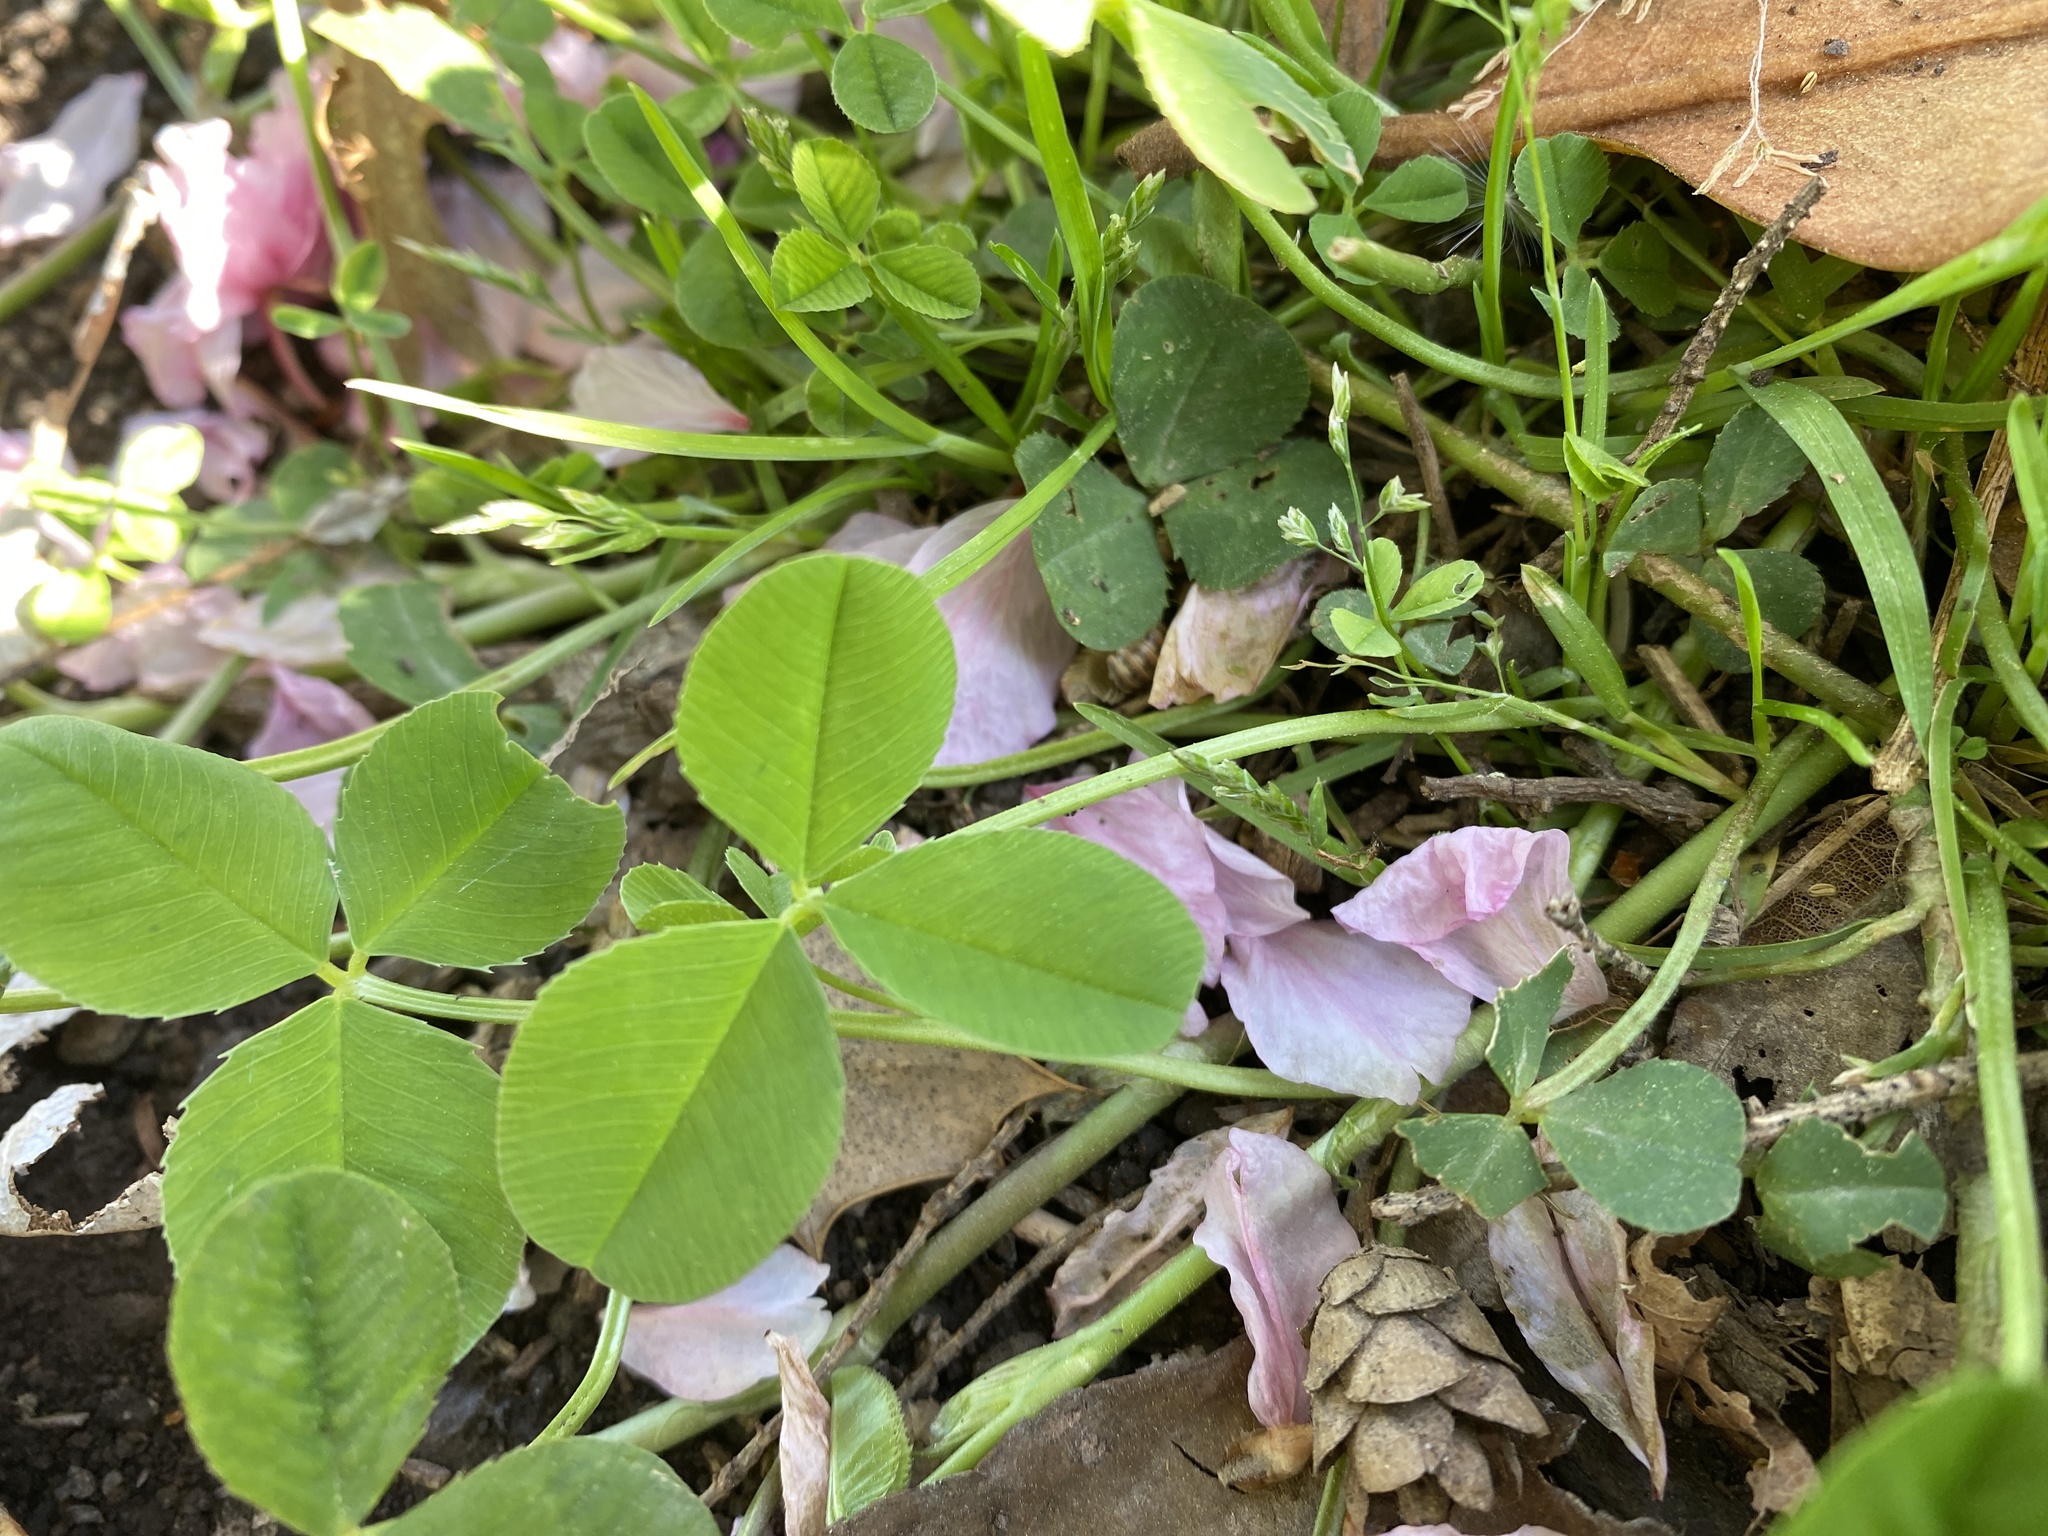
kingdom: Plantae
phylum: Tracheophyta
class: Magnoliopsida
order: Fabales
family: Fabaceae
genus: Trifolium
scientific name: Trifolium repens
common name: White clover
